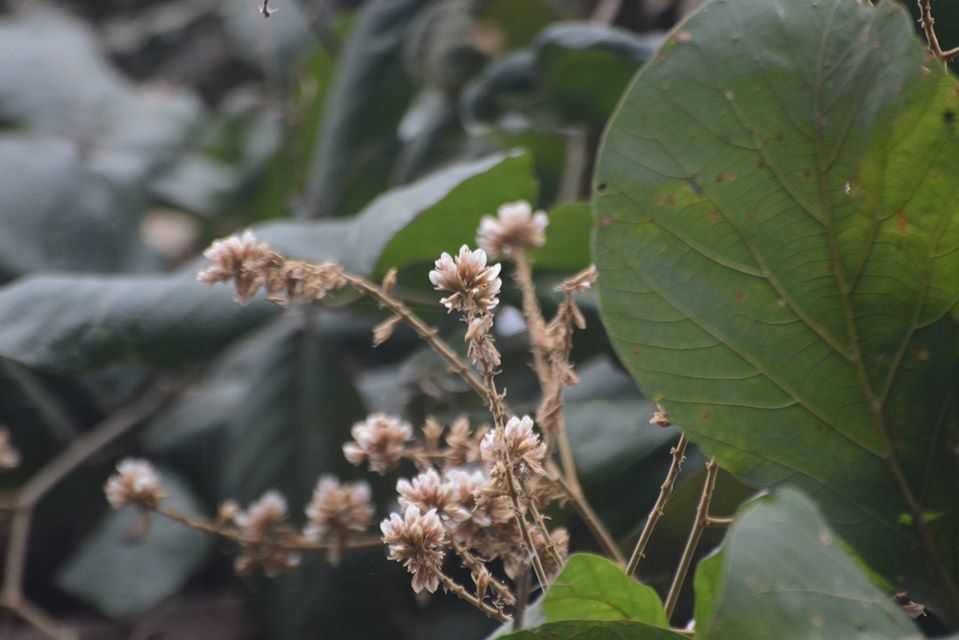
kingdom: Plantae
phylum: Tracheophyta
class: Magnoliopsida
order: Fabales
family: Fabaceae
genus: Spatholobus
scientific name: Spatholobus parviflorus
